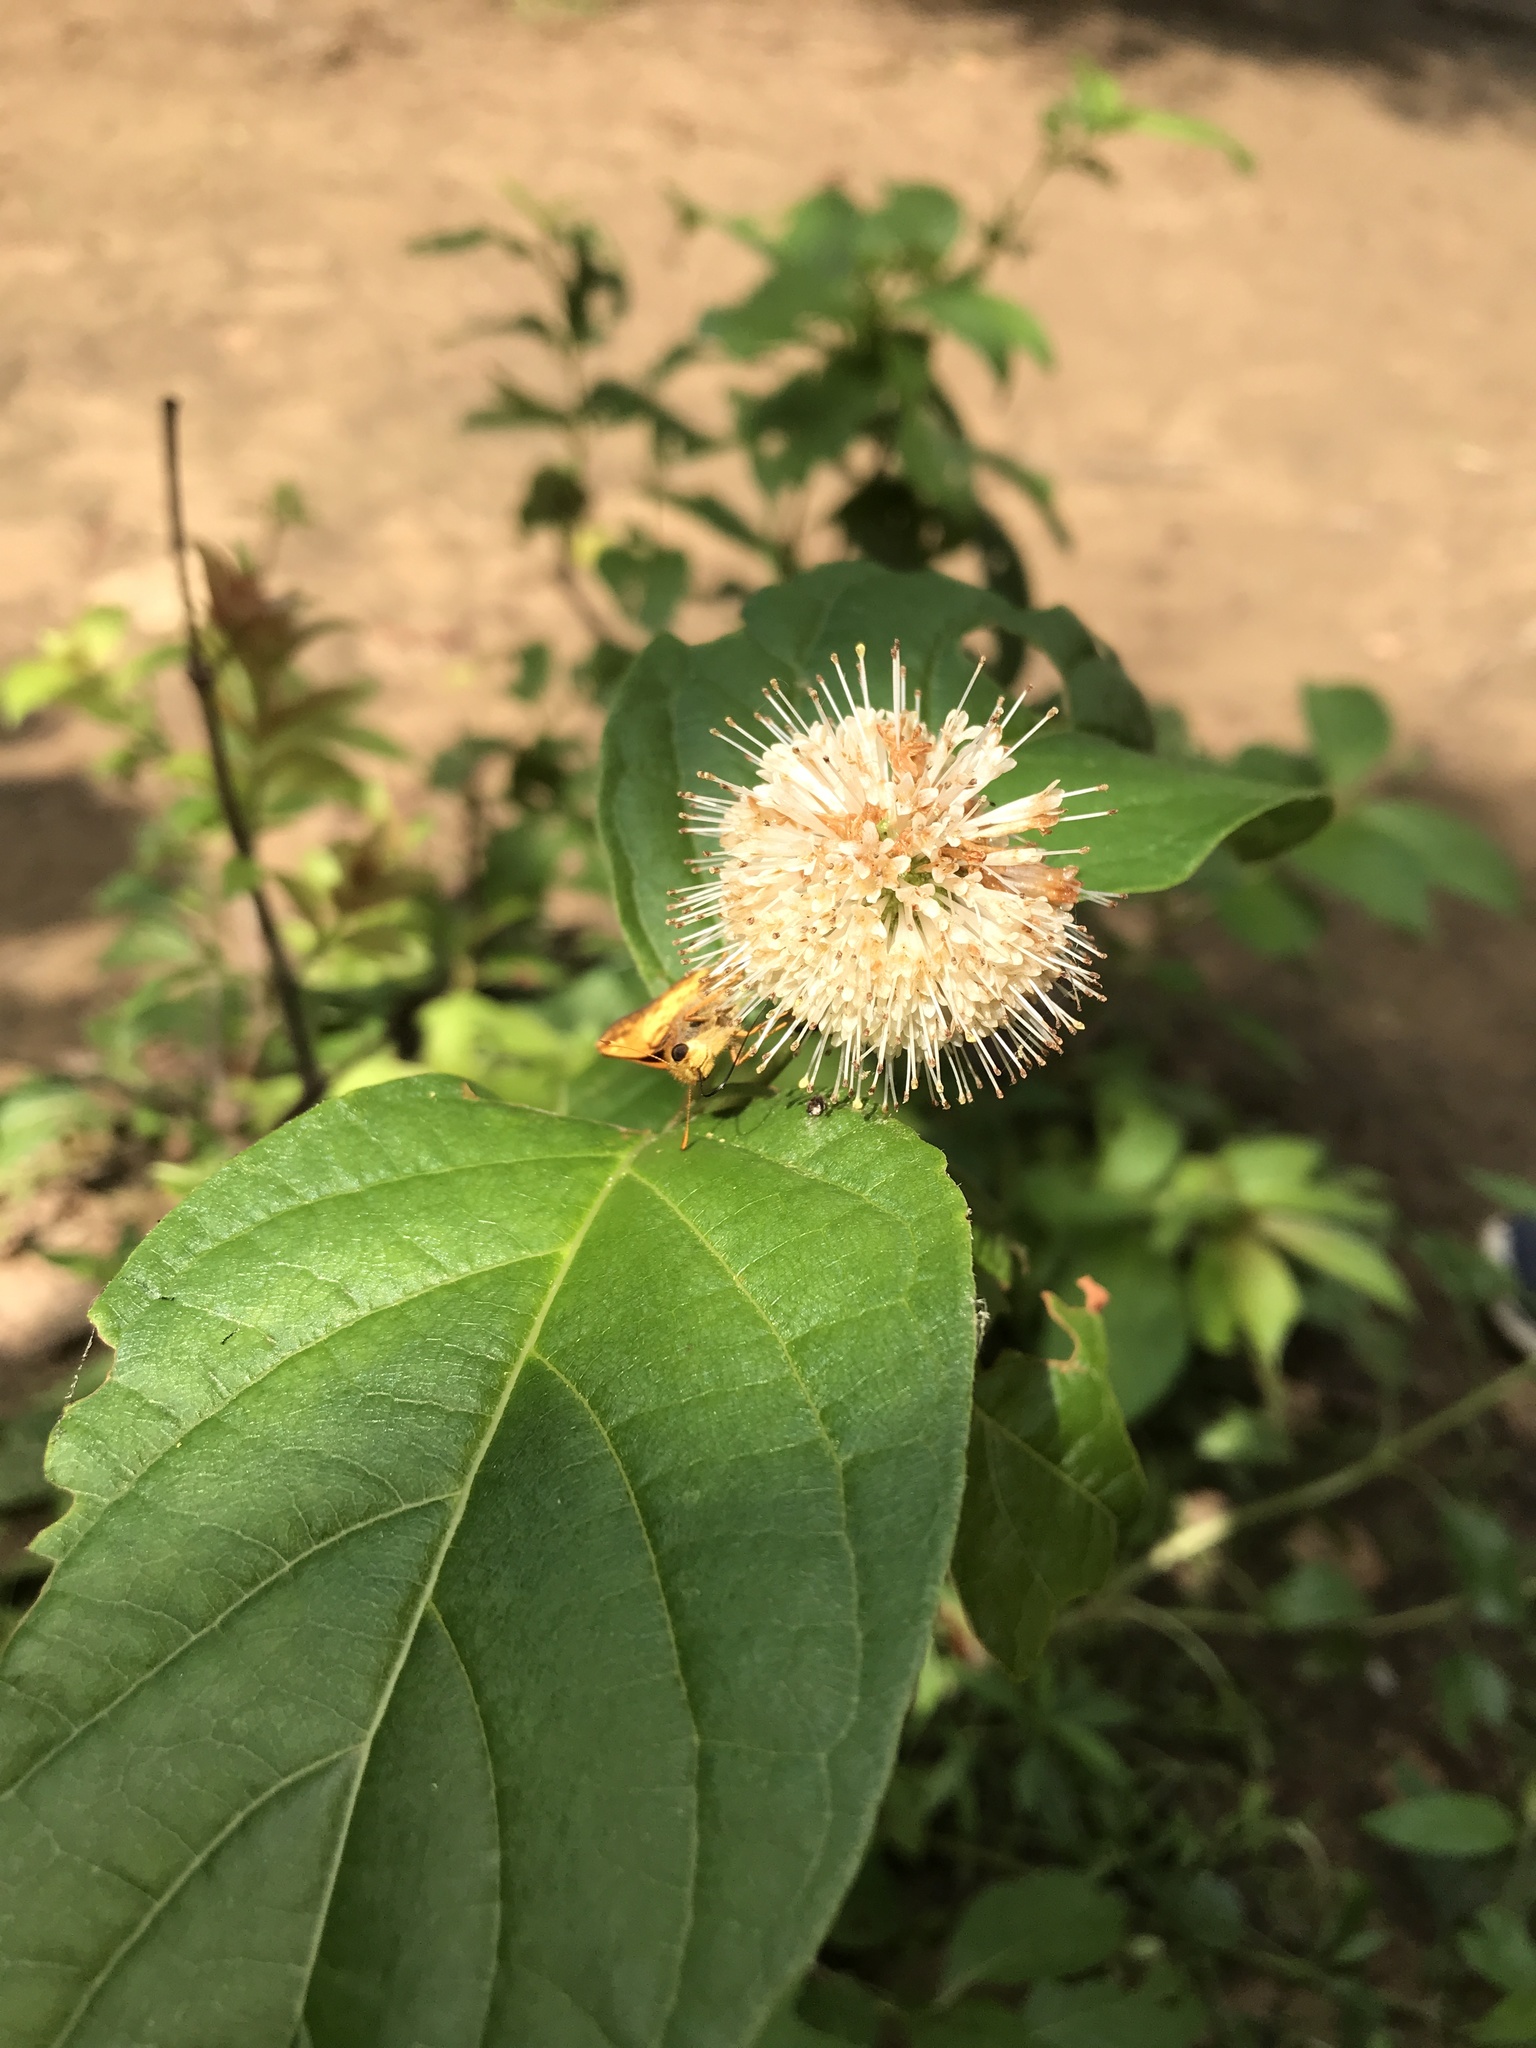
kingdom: Plantae
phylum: Tracheophyta
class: Magnoliopsida
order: Gentianales
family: Rubiaceae
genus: Cephalanthus
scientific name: Cephalanthus occidentalis
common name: Button-willow
